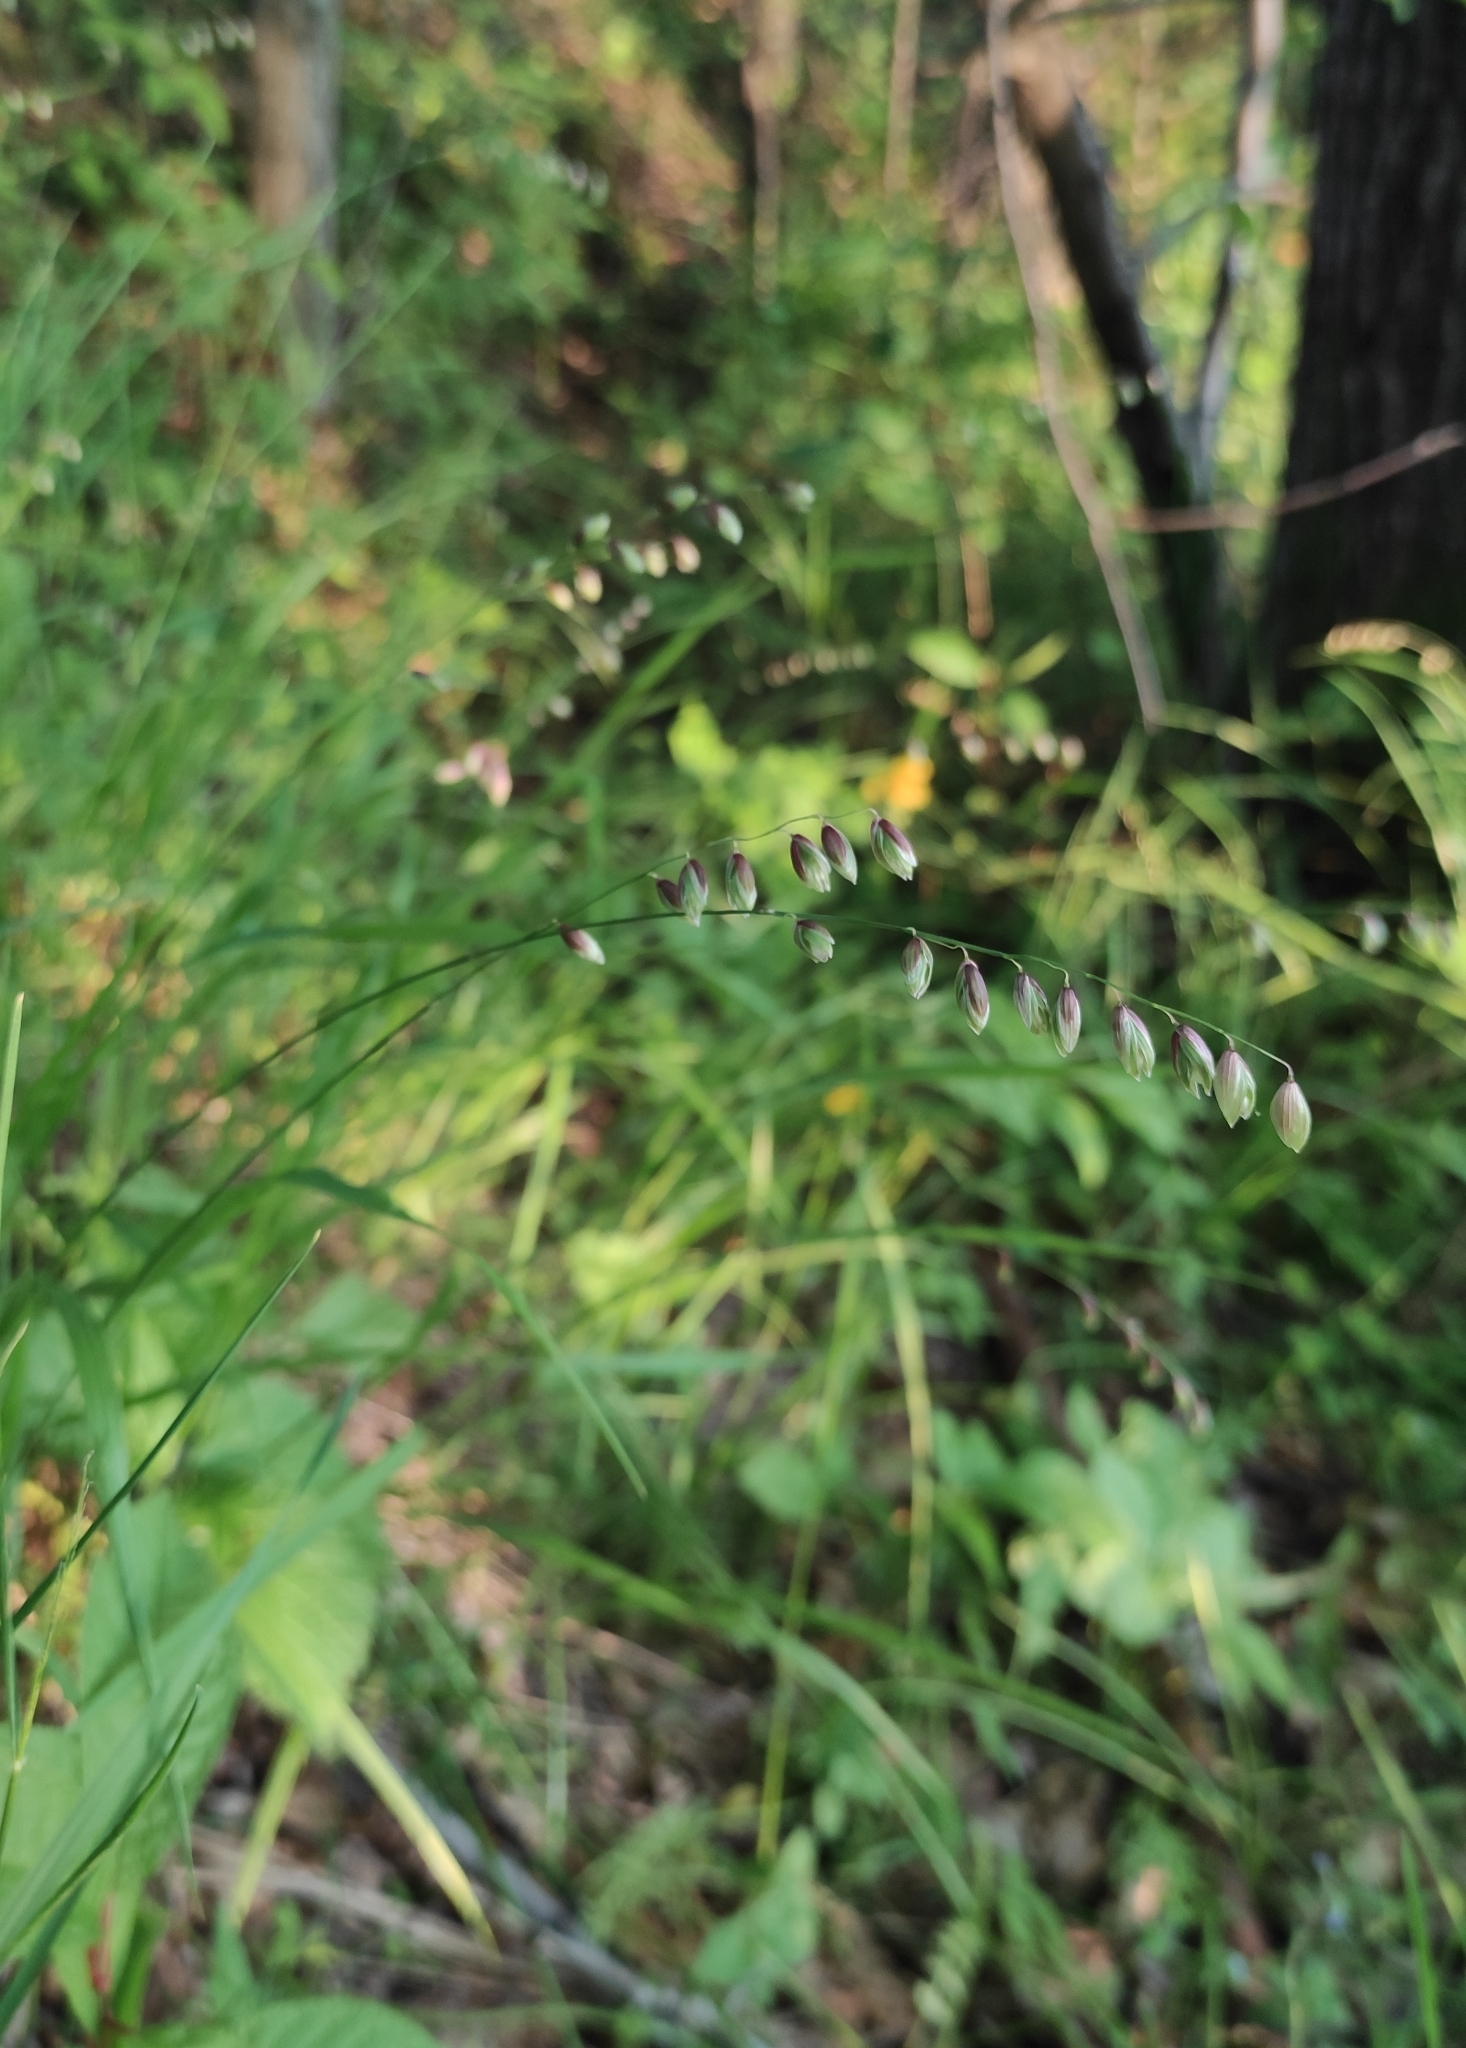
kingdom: Plantae
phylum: Tracheophyta
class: Liliopsida
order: Poales
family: Poaceae
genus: Melica
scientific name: Melica nutans
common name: Mountain melick
